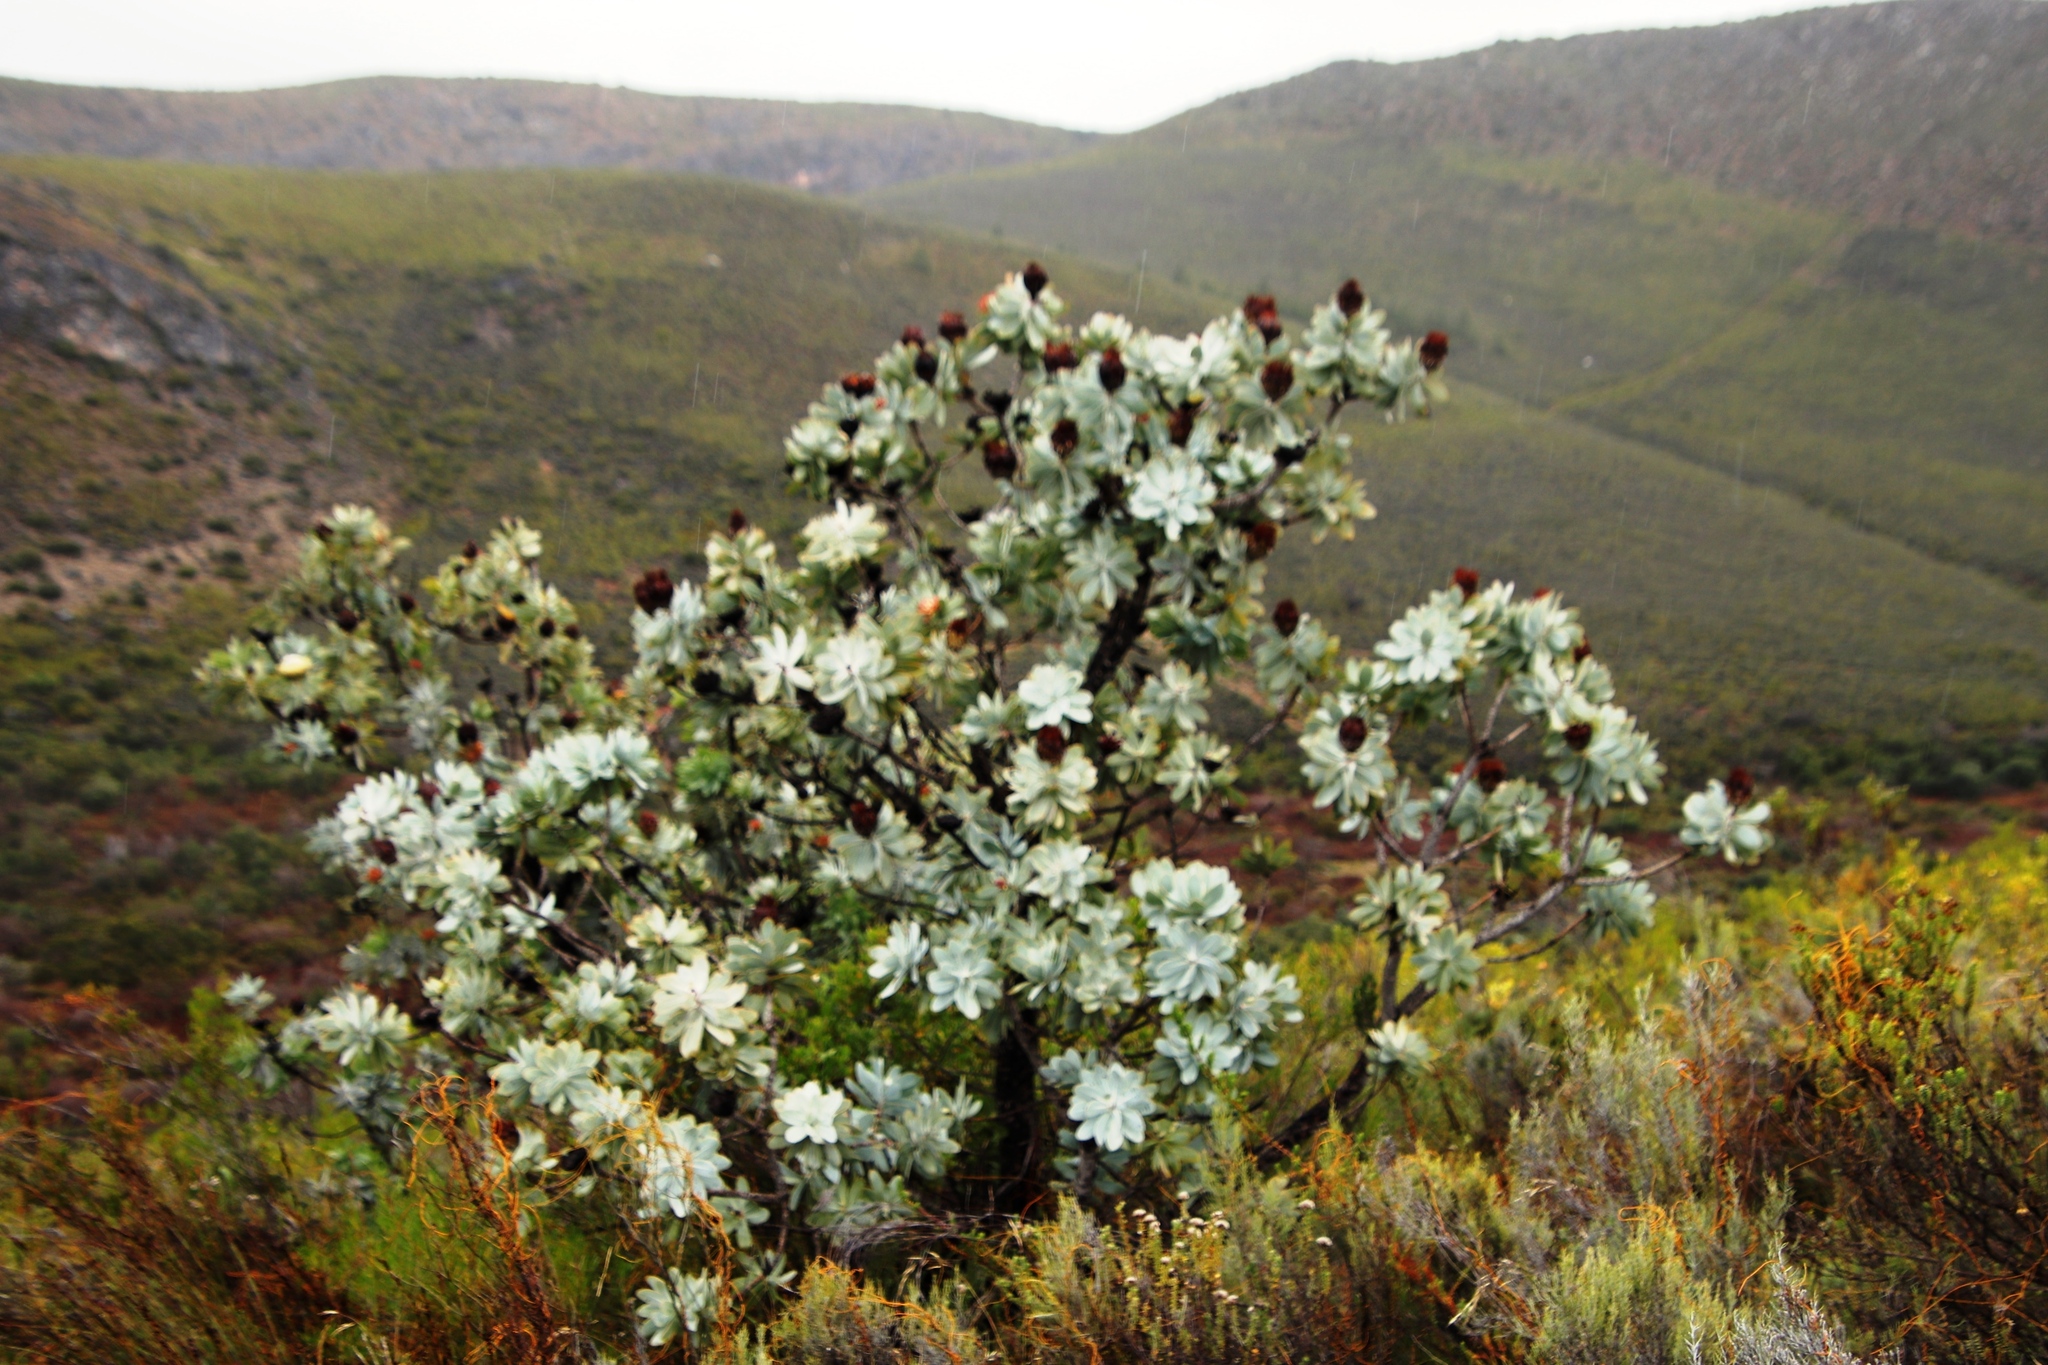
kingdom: Plantae
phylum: Tracheophyta
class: Magnoliopsida
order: Proteales
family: Proteaceae
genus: Protea
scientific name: Protea nitida
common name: Tree protea
